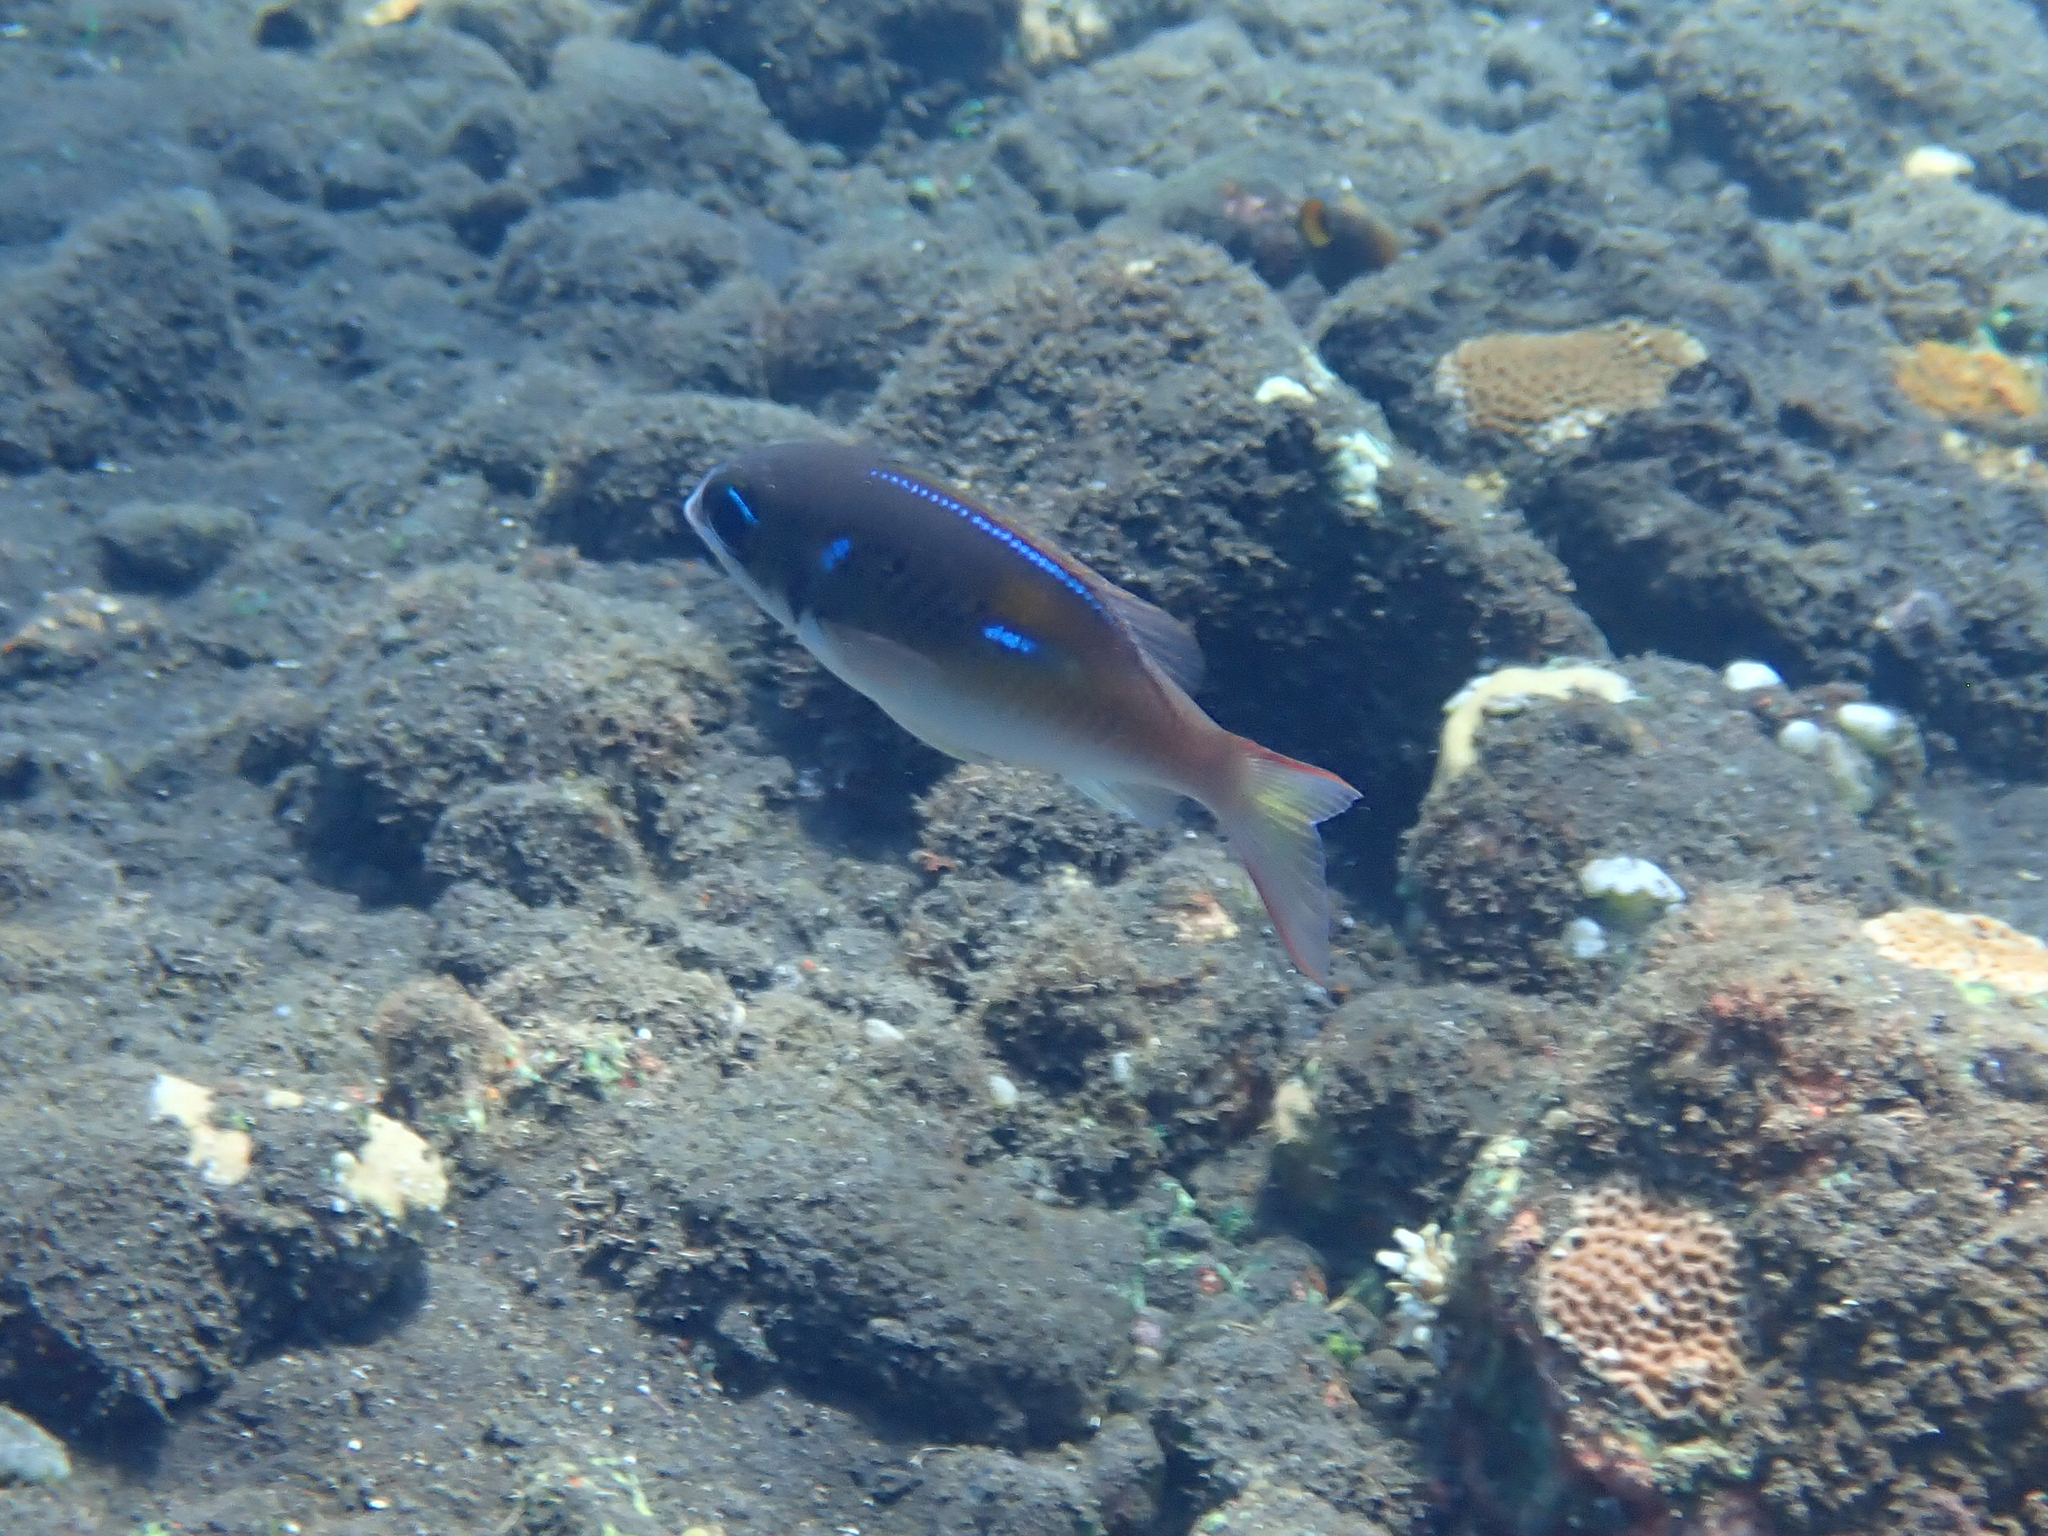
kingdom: Animalia
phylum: Chordata
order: Perciformes
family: Nemipteridae
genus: Scolopsis
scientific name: Scolopsis xenochrous
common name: Oblique-barred monocle bream
